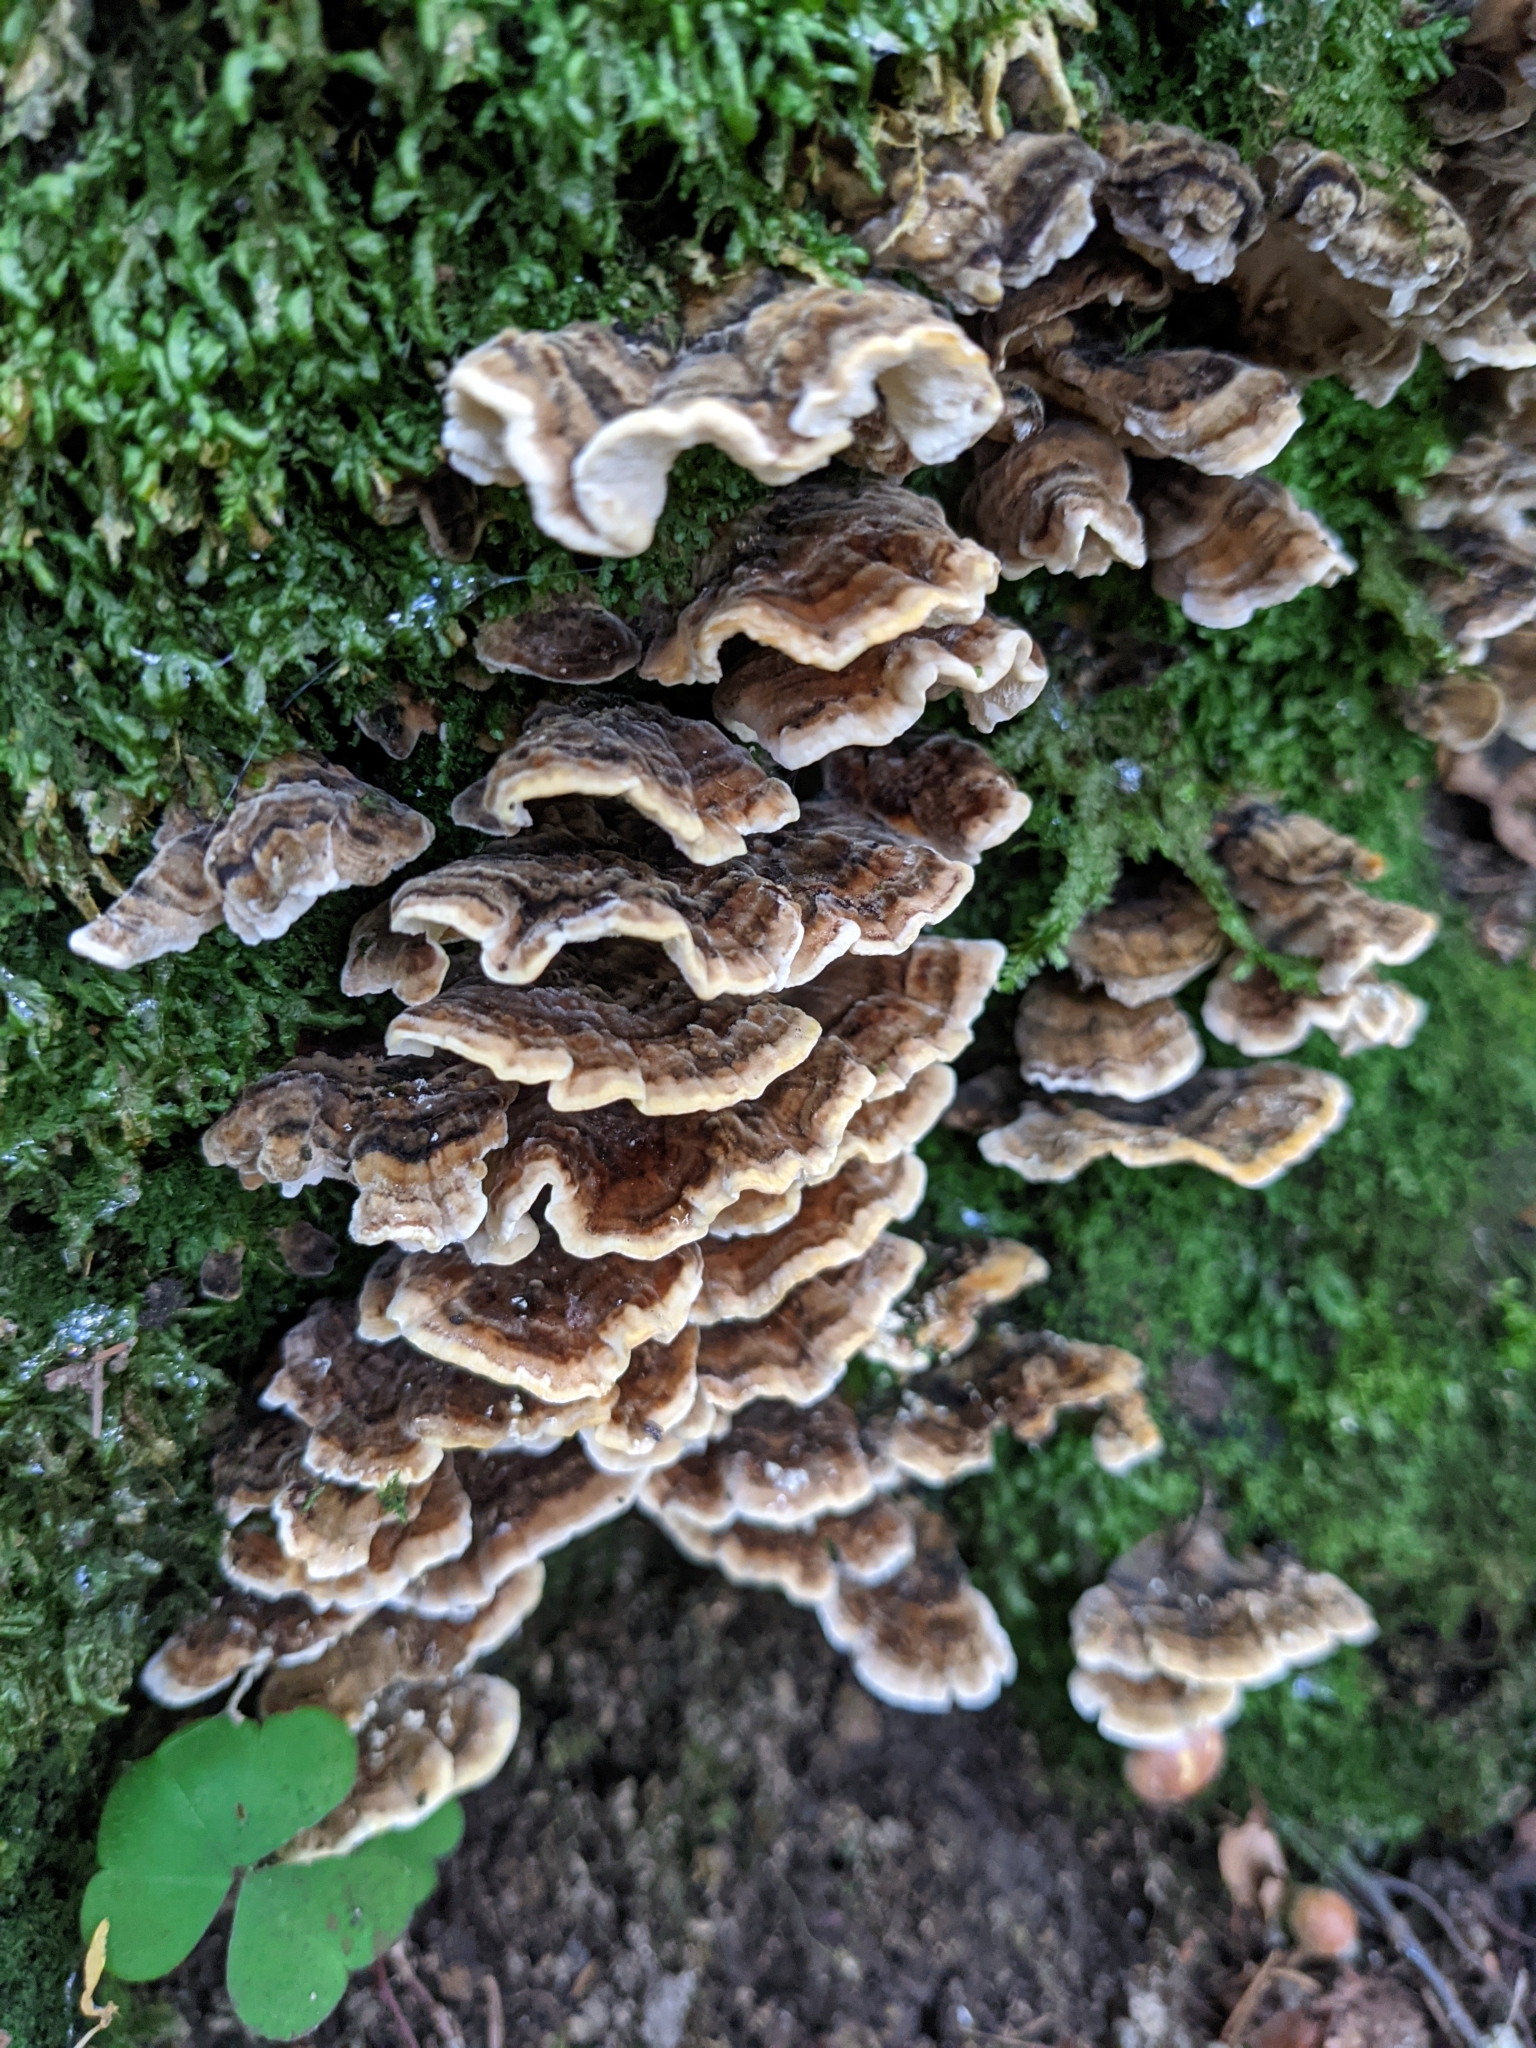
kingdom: Fungi
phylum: Basidiomycota
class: Agaricomycetes
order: Polyporales
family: Polyporaceae
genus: Trametes
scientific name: Trametes versicolor
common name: Turkeytail
